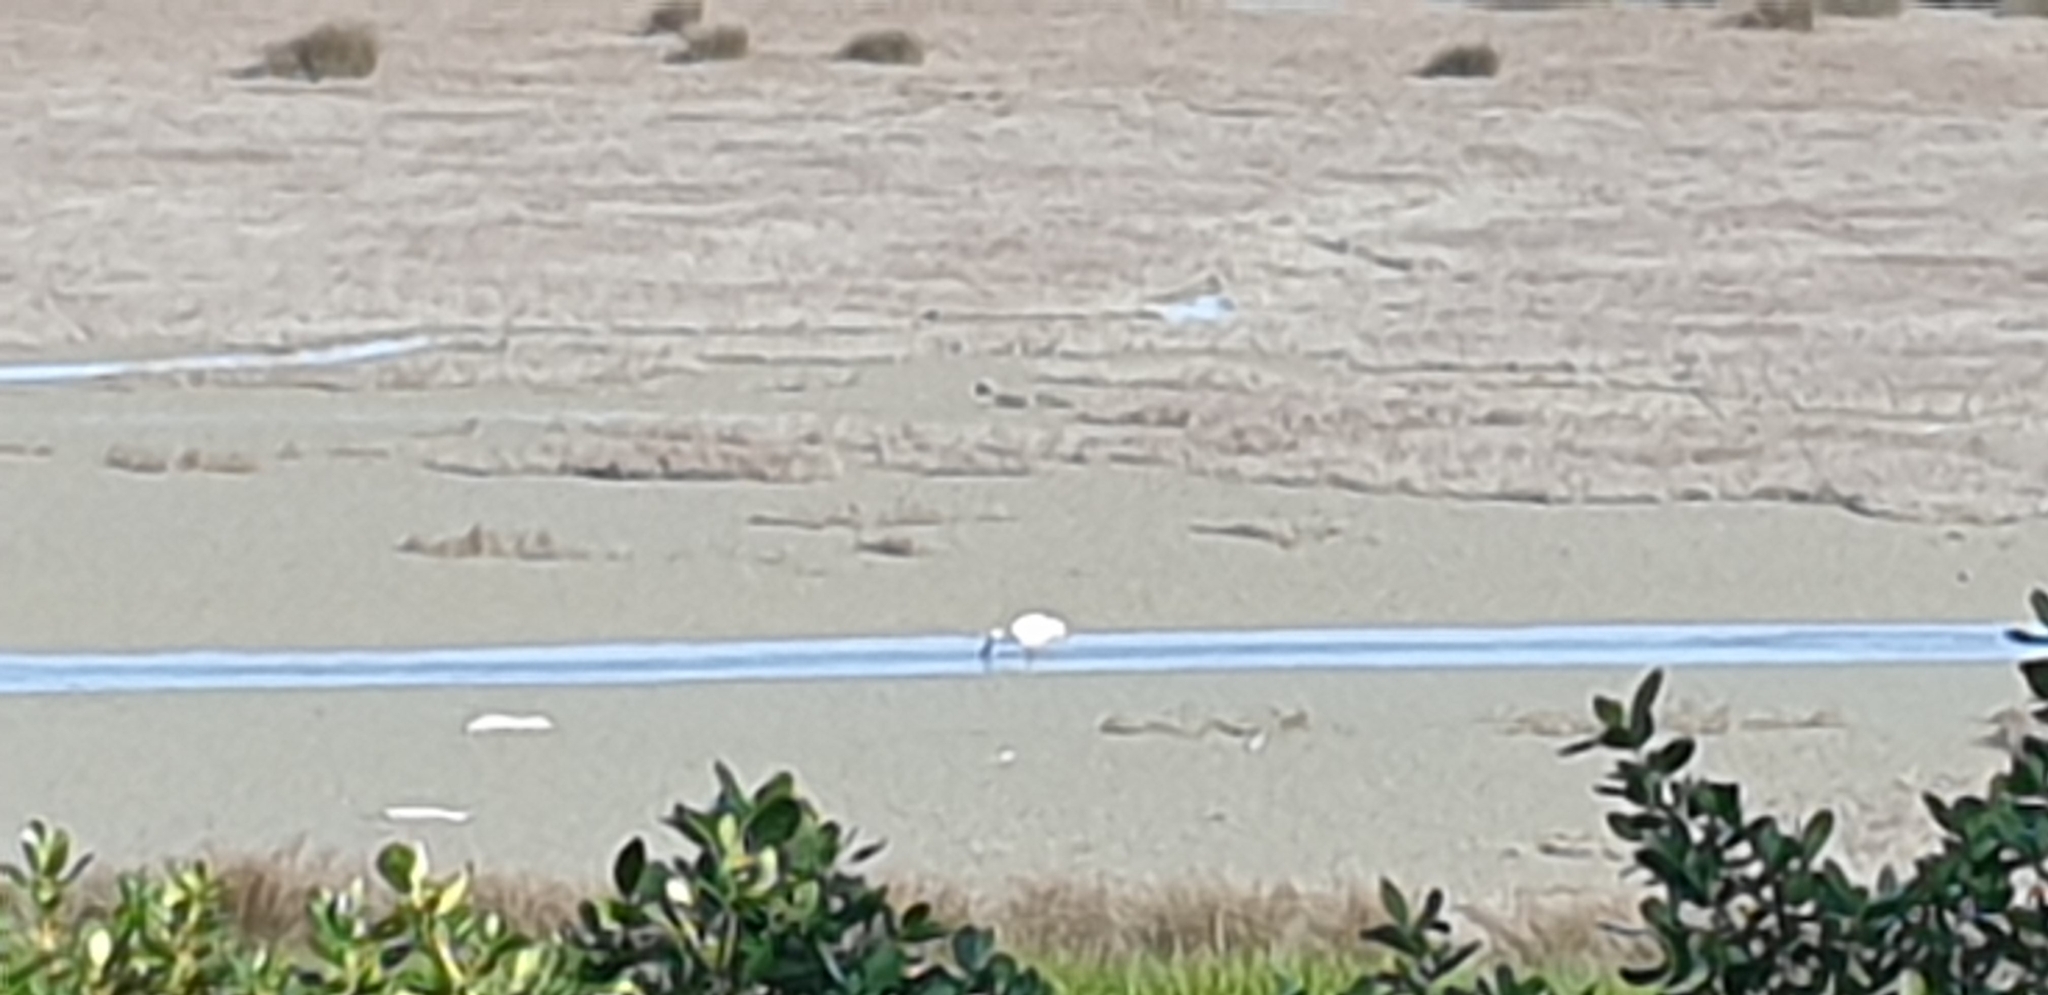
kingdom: Animalia
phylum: Chordata
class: Aves
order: Pelecaniformes
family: Threskiornithidae
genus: Platalea
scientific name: Platalea regia
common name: Royal spoonbill
